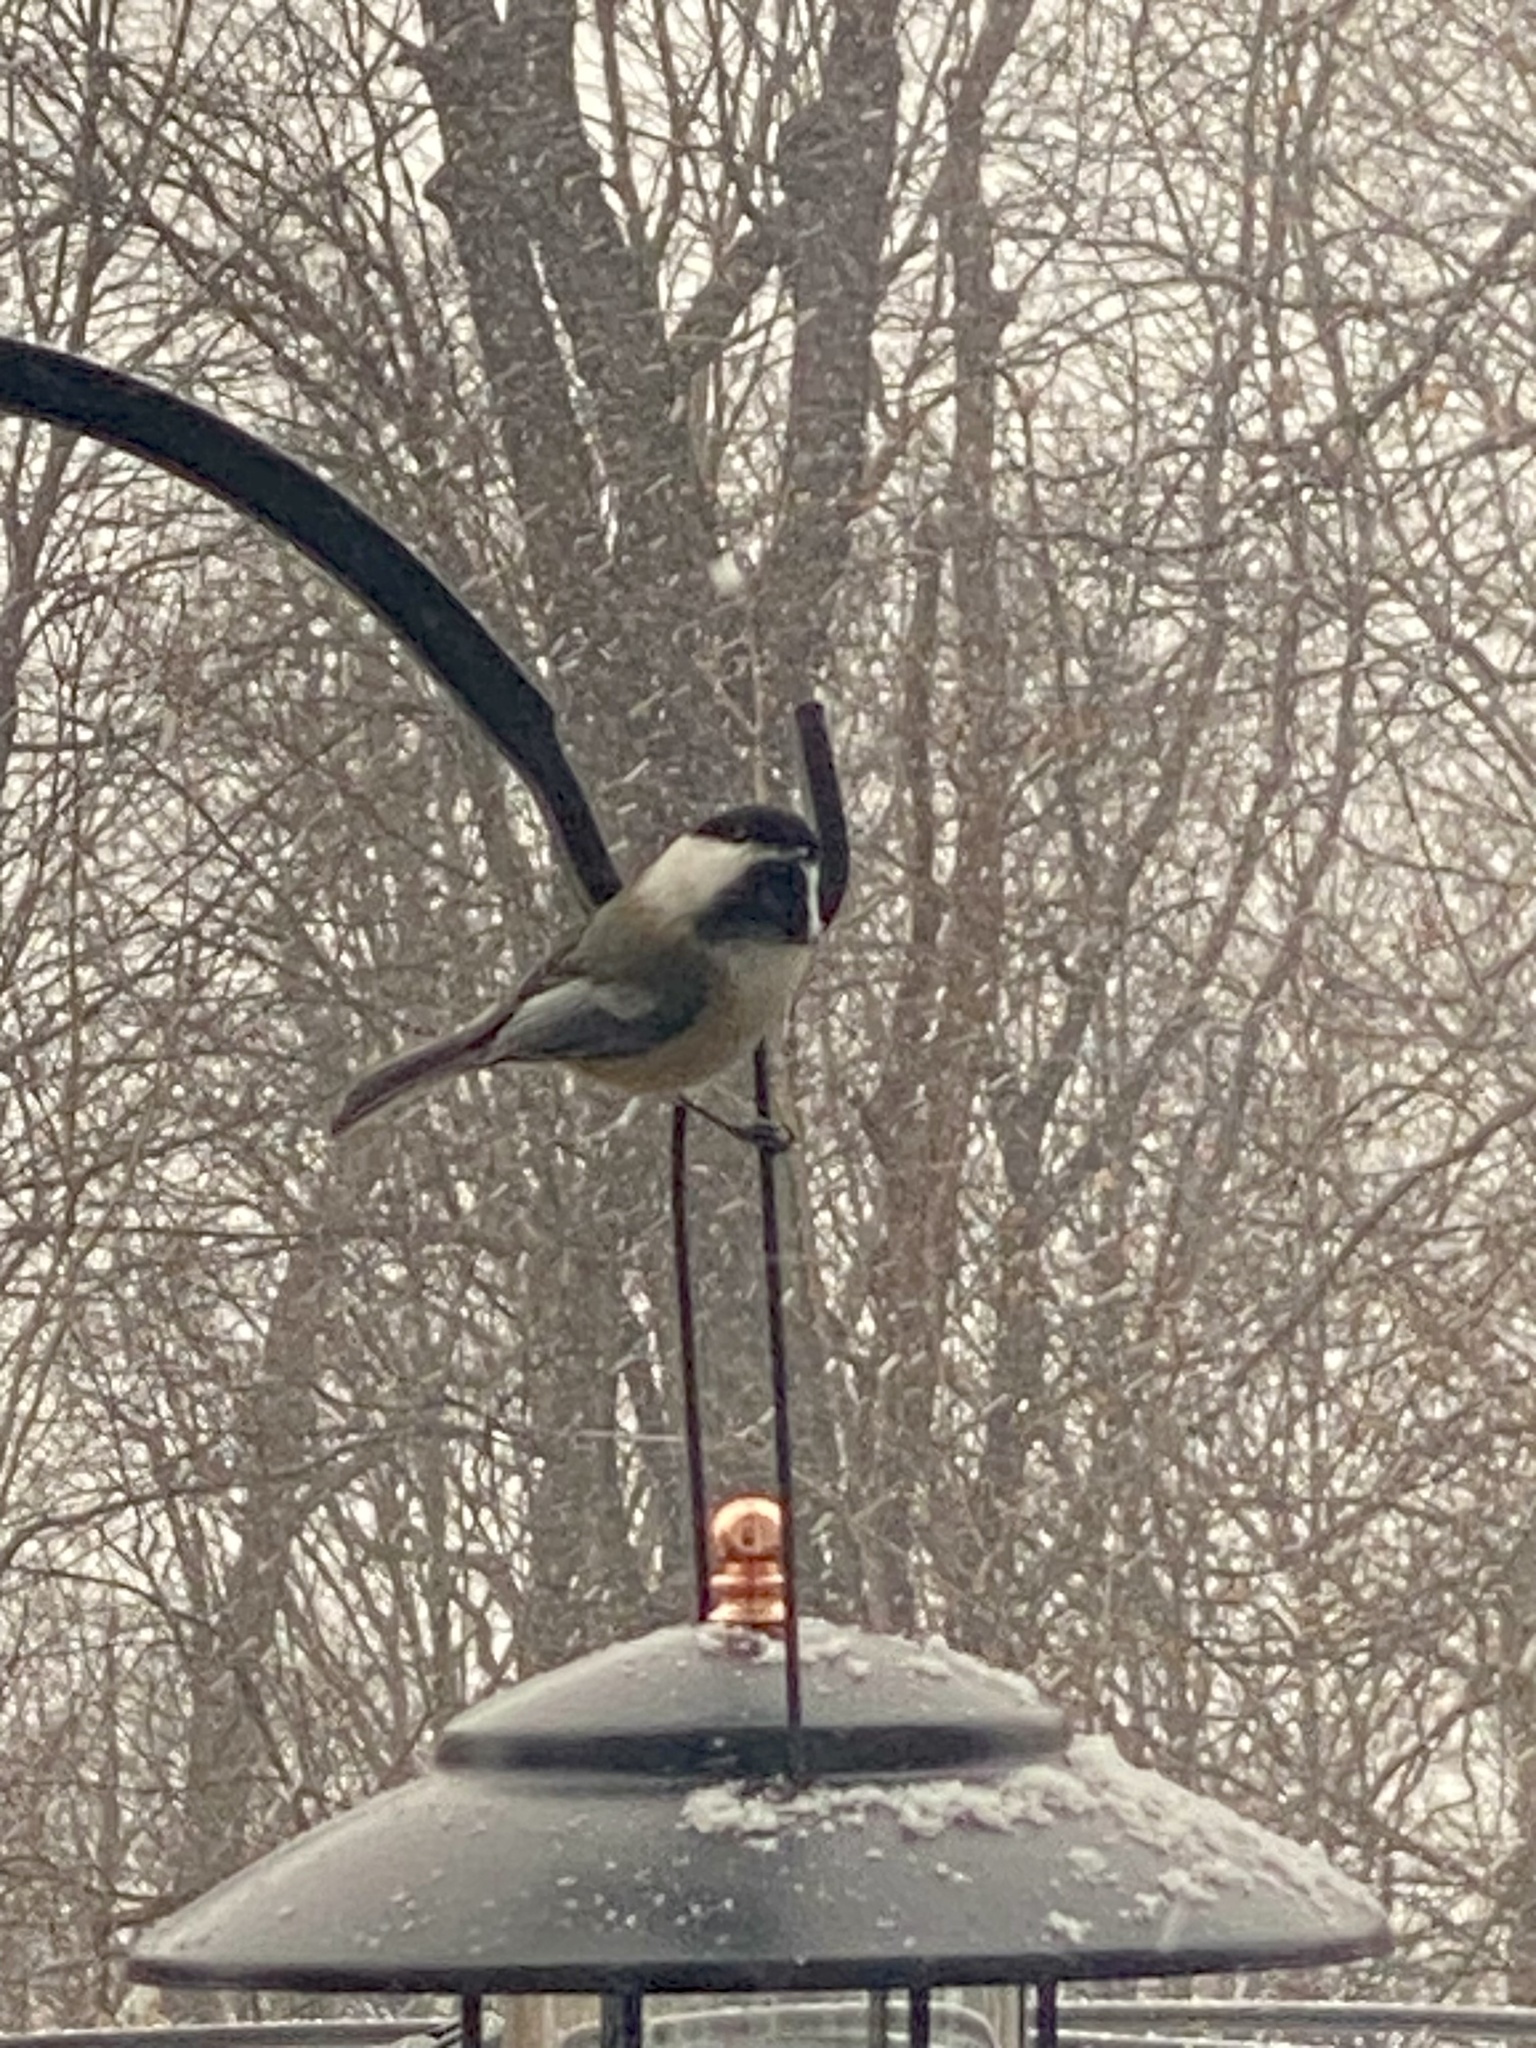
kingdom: Animalia
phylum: Chordata
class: Aves
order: Passeriformes
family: Paridae
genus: Poecile
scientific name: Poecile atricapillus
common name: Black-capped chickadee
